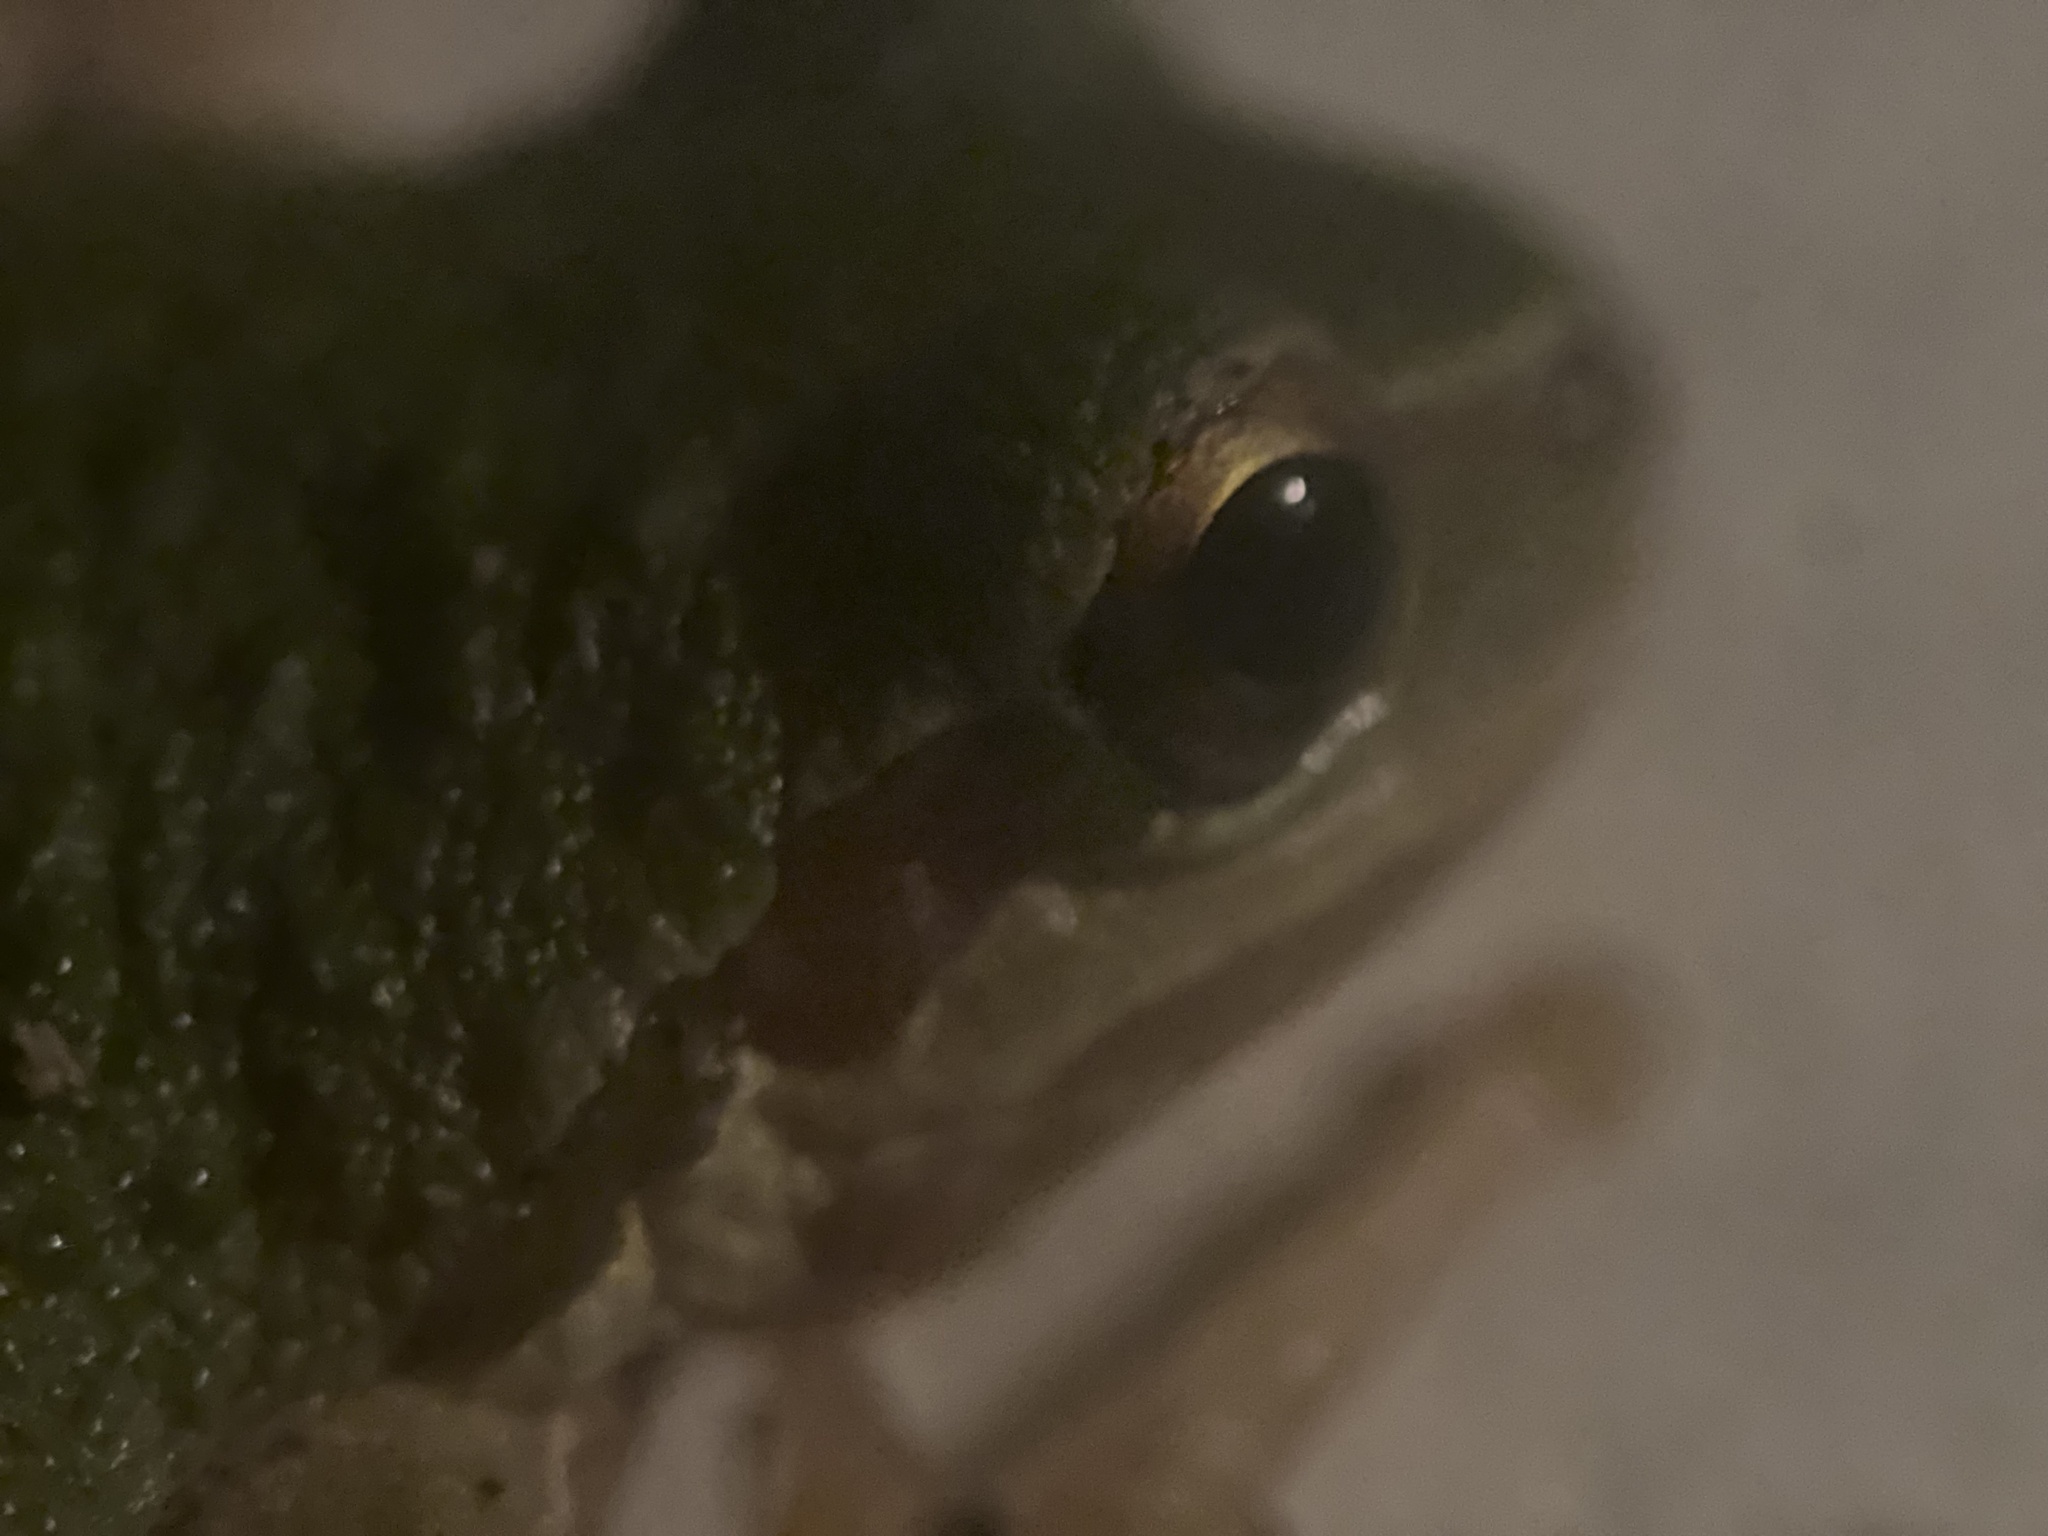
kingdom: Animalia
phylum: Chordata
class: Amphibia
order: Anura
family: Hylidae
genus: Pseudacris
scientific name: Pseudacris regilla
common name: Pacific chorus frog
